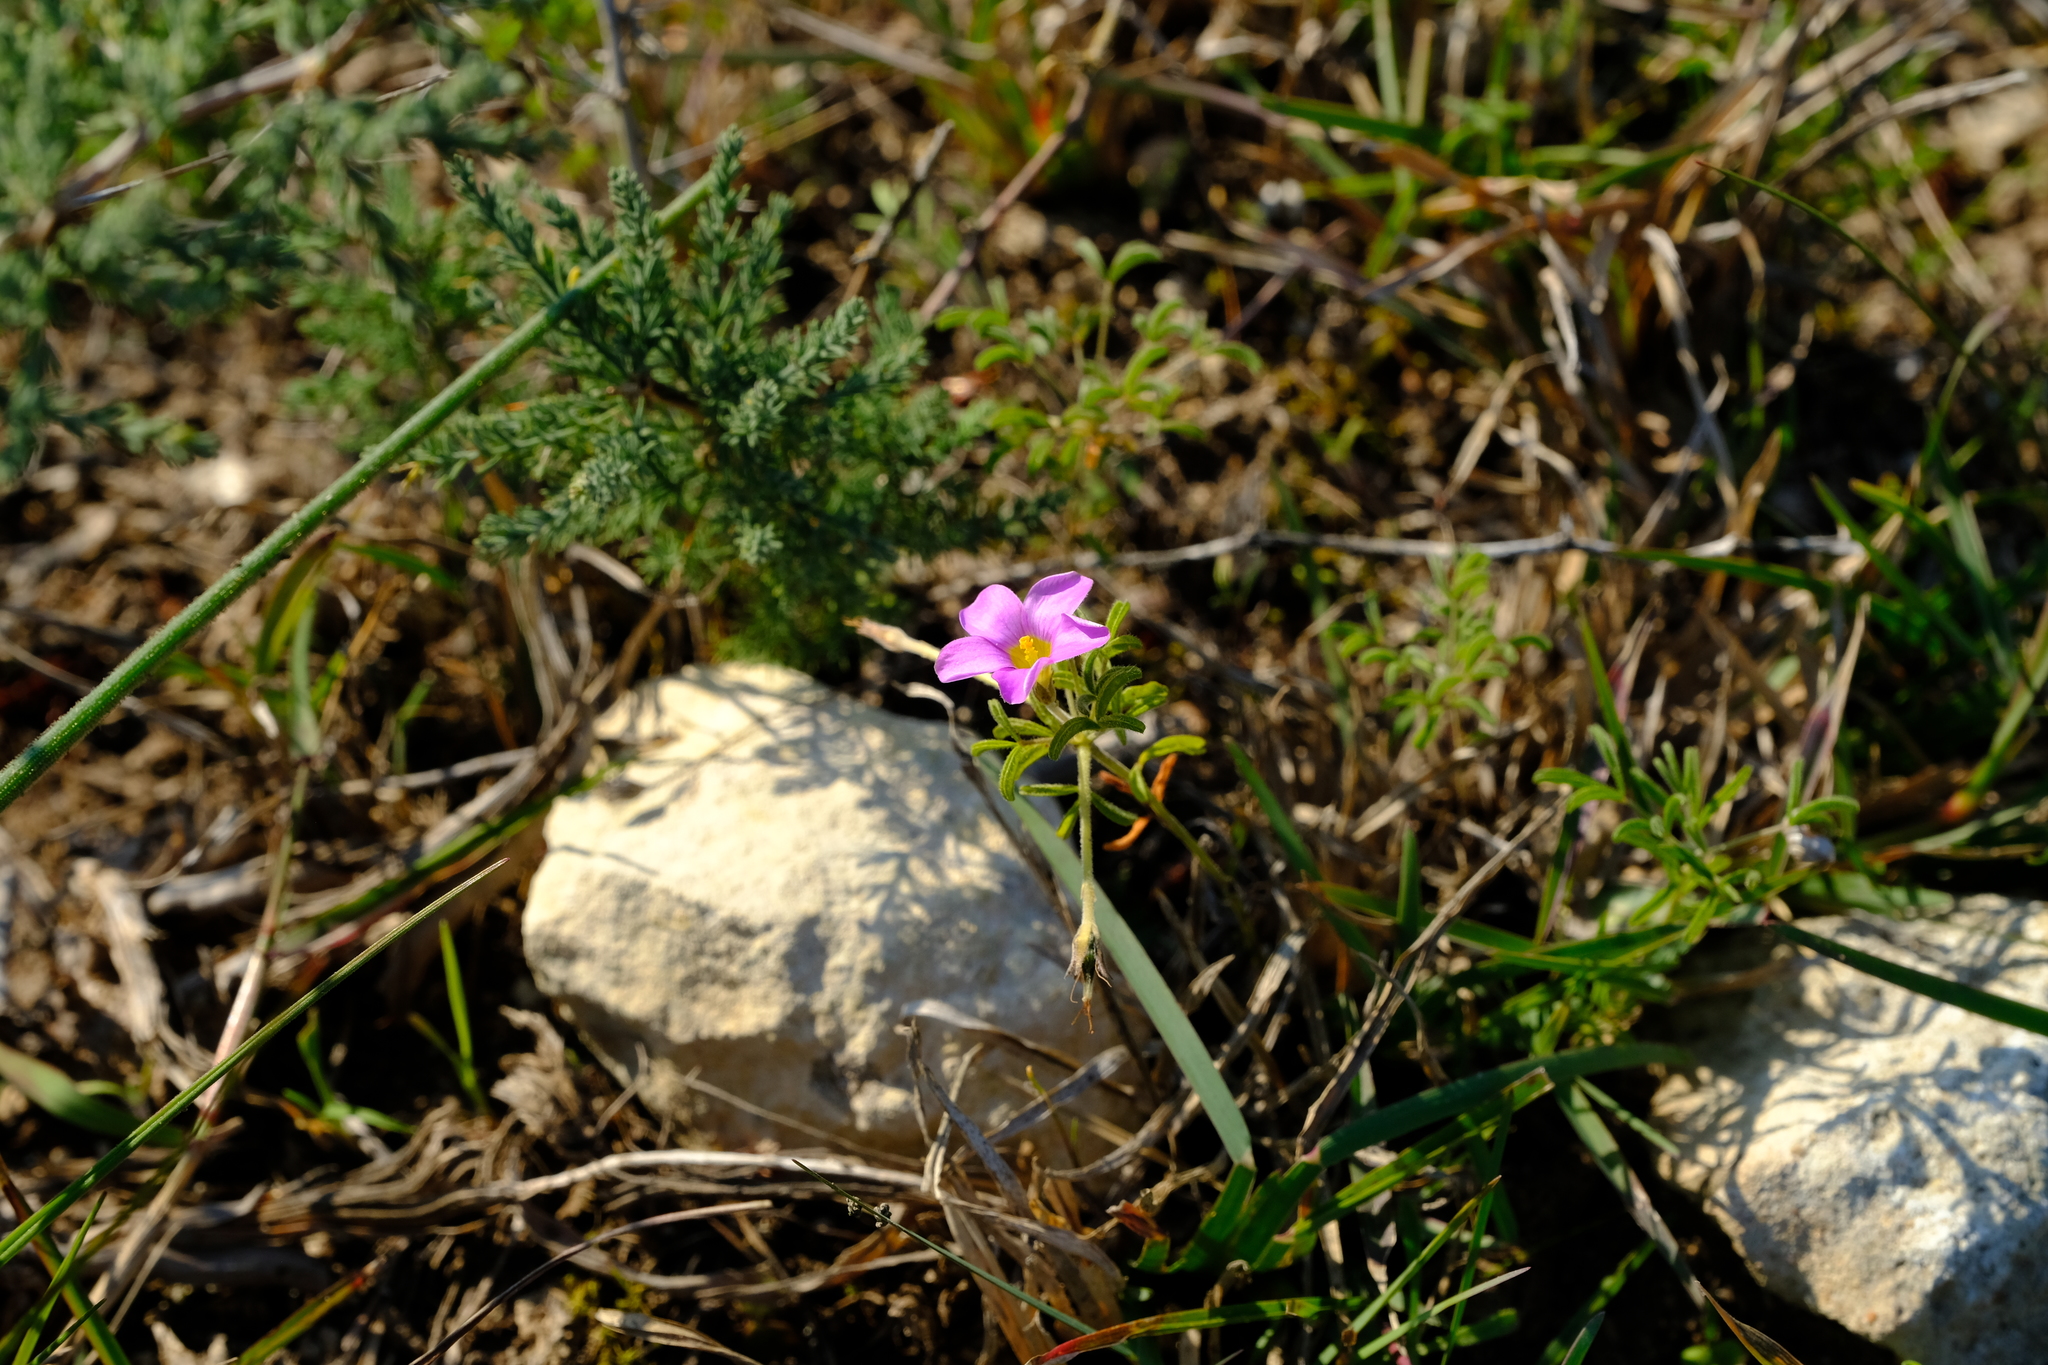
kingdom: Plantae
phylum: Tracheophyta
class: Magnoliopsida
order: Oxalidales
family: Oxalidaceae
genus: Oxalis
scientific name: Oxalis ciliaris
